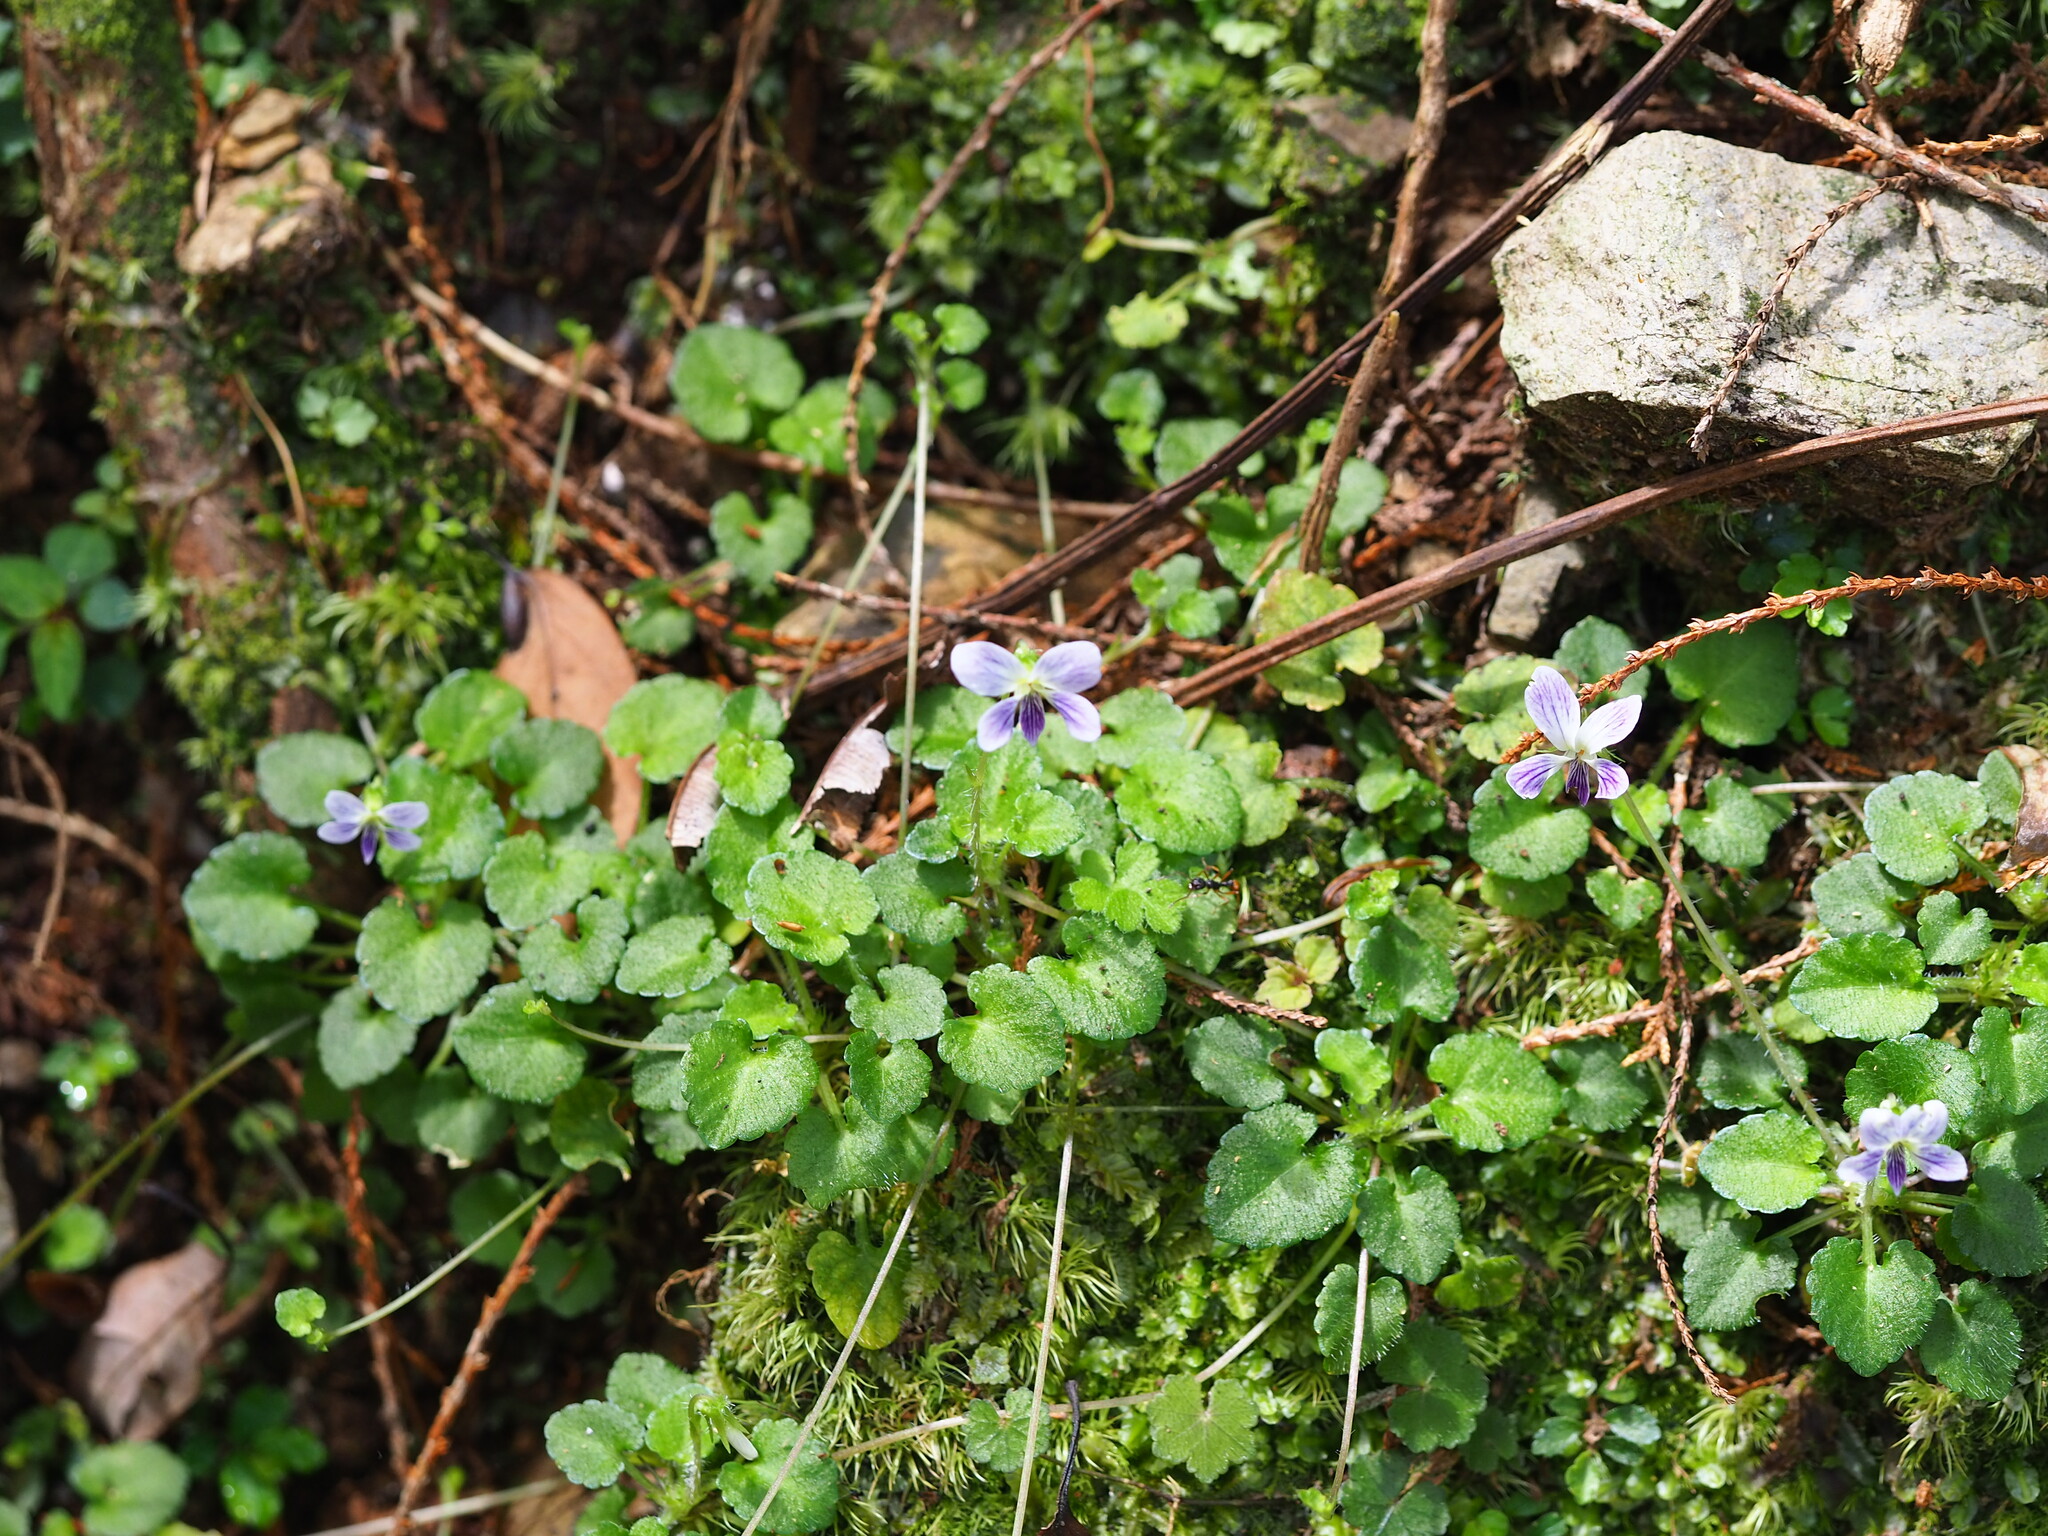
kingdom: Plantae
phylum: Tracheophyta
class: Magnoliopsida
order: Malpighiales
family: Violaceae
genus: Viola
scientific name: Viola nagasawae
